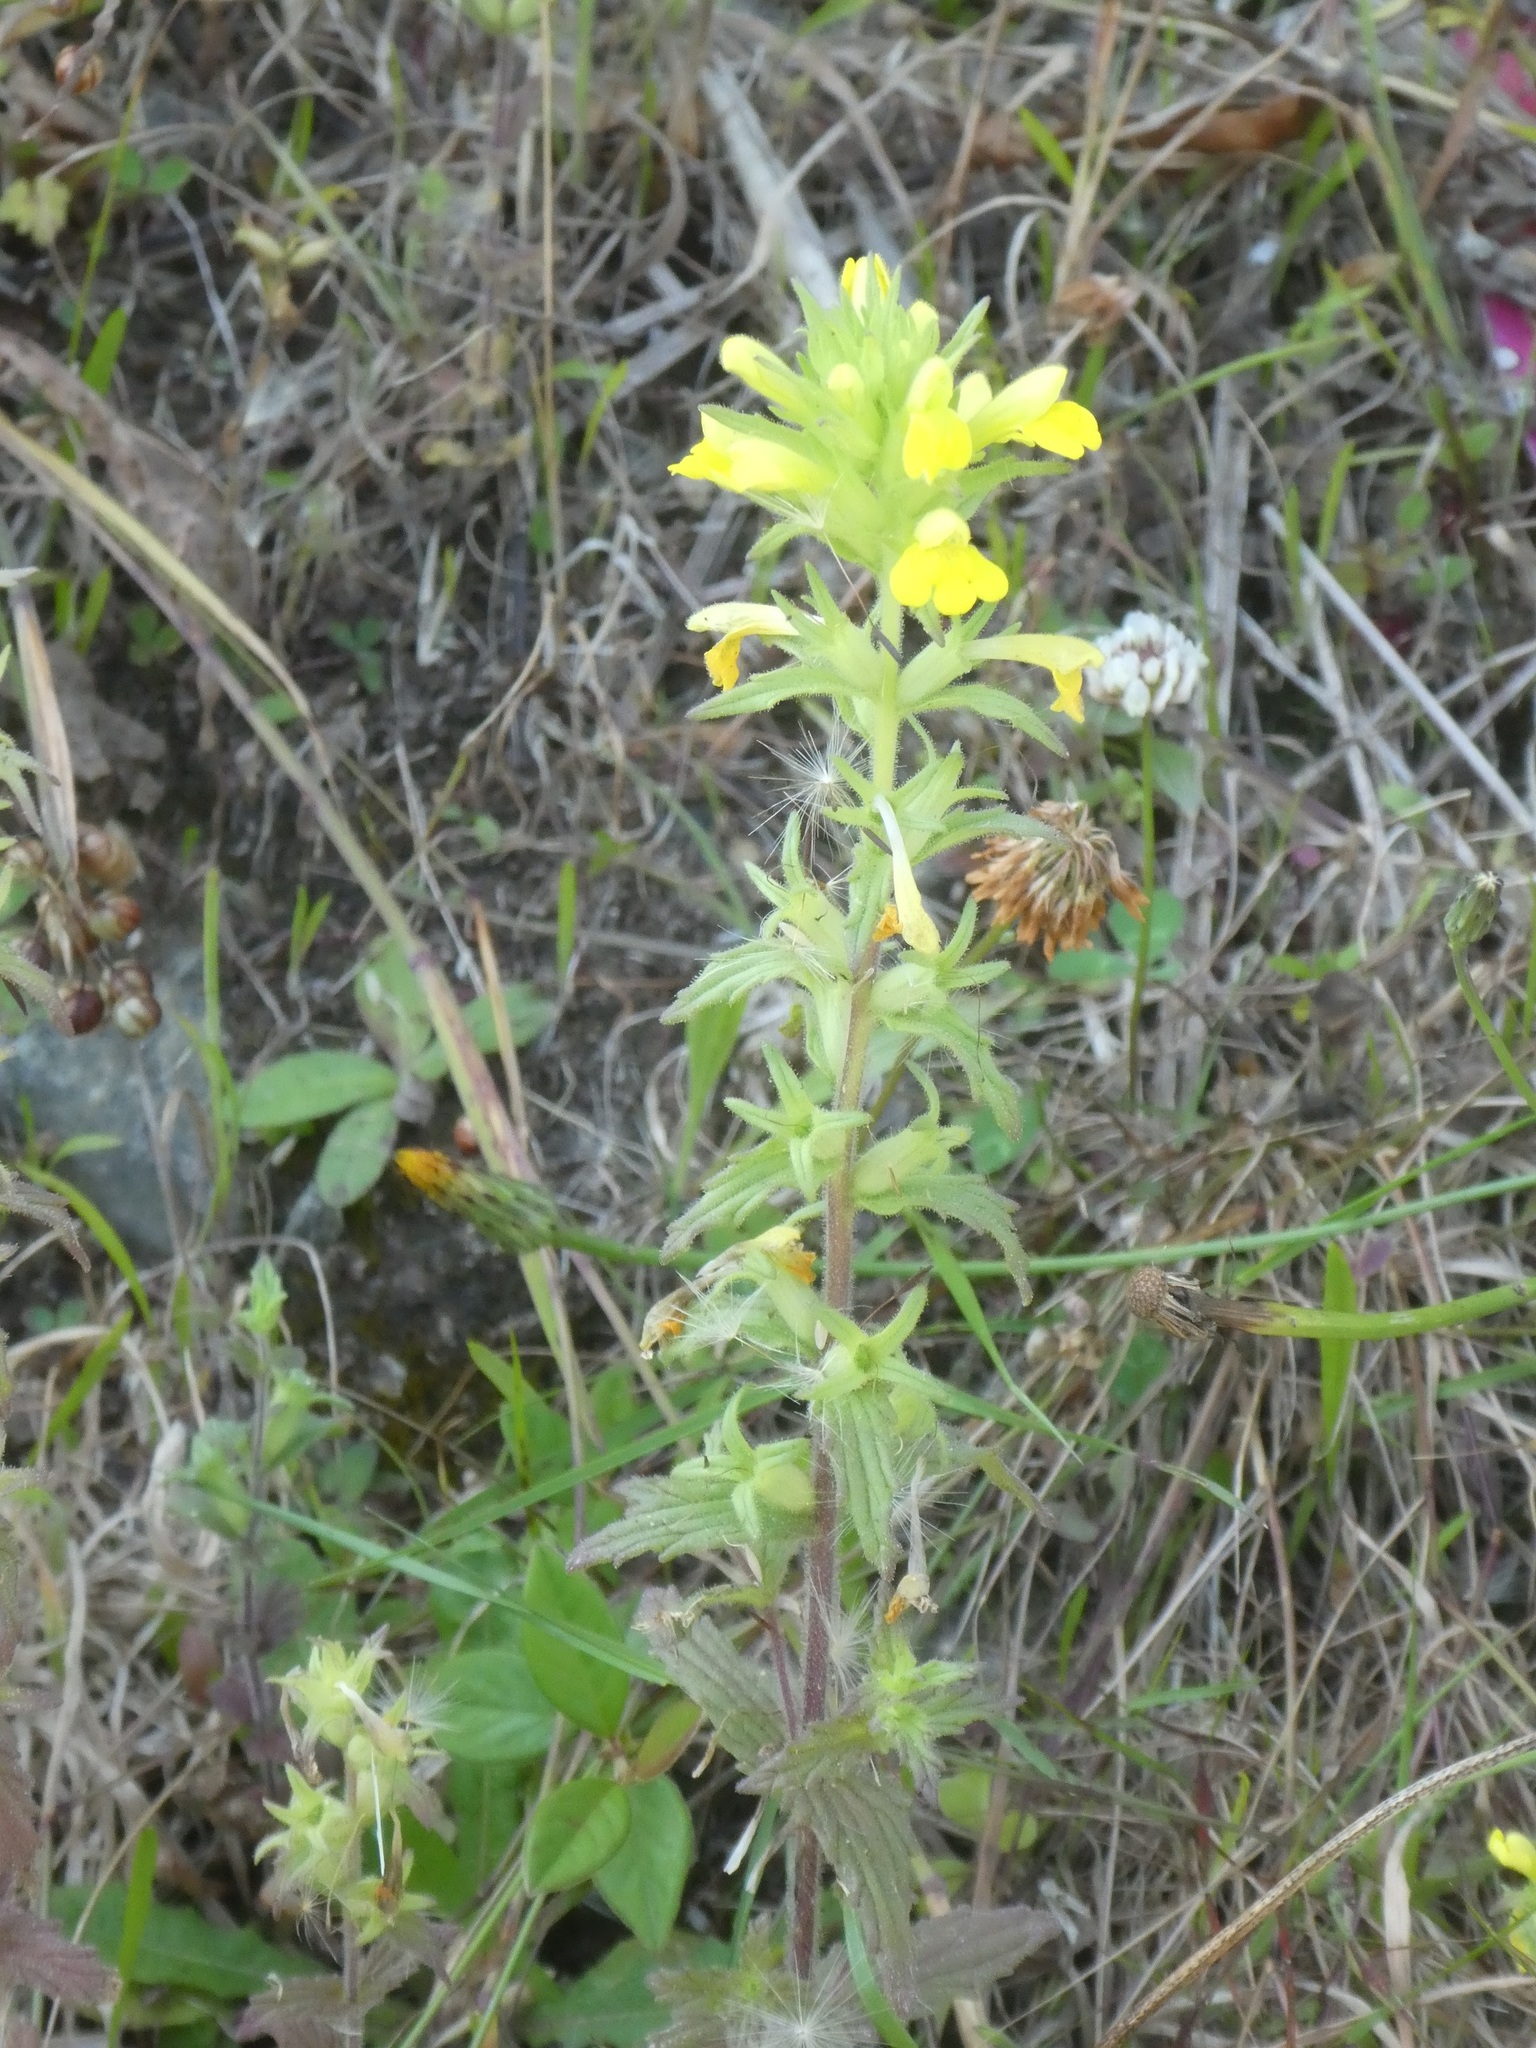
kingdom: Plantae
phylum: Tracheophyta
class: Magnoliopsida
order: Lamiales
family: Orobanchaceae
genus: Bellardia
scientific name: Bellardia viscosa
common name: Sticky parentucellia
